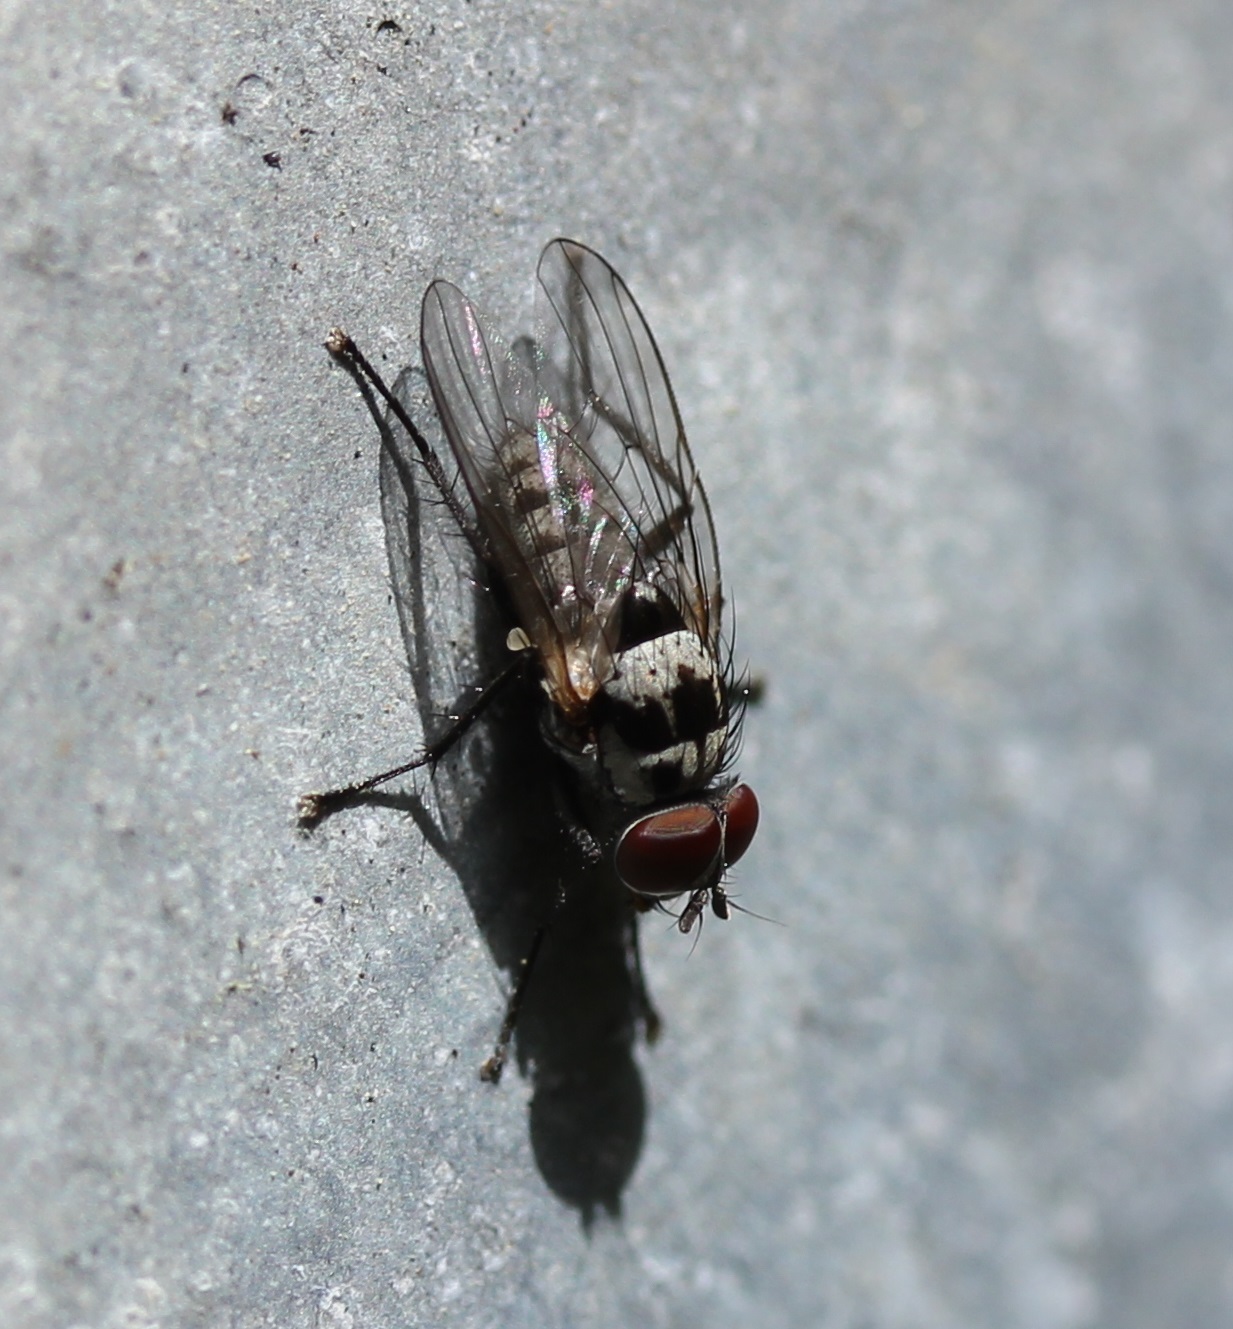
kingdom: Animalia
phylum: Arthropoda
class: Insecta
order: Diptera
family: Anthomyiidae
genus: Anthomyia
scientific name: Anthomyia procellaris
